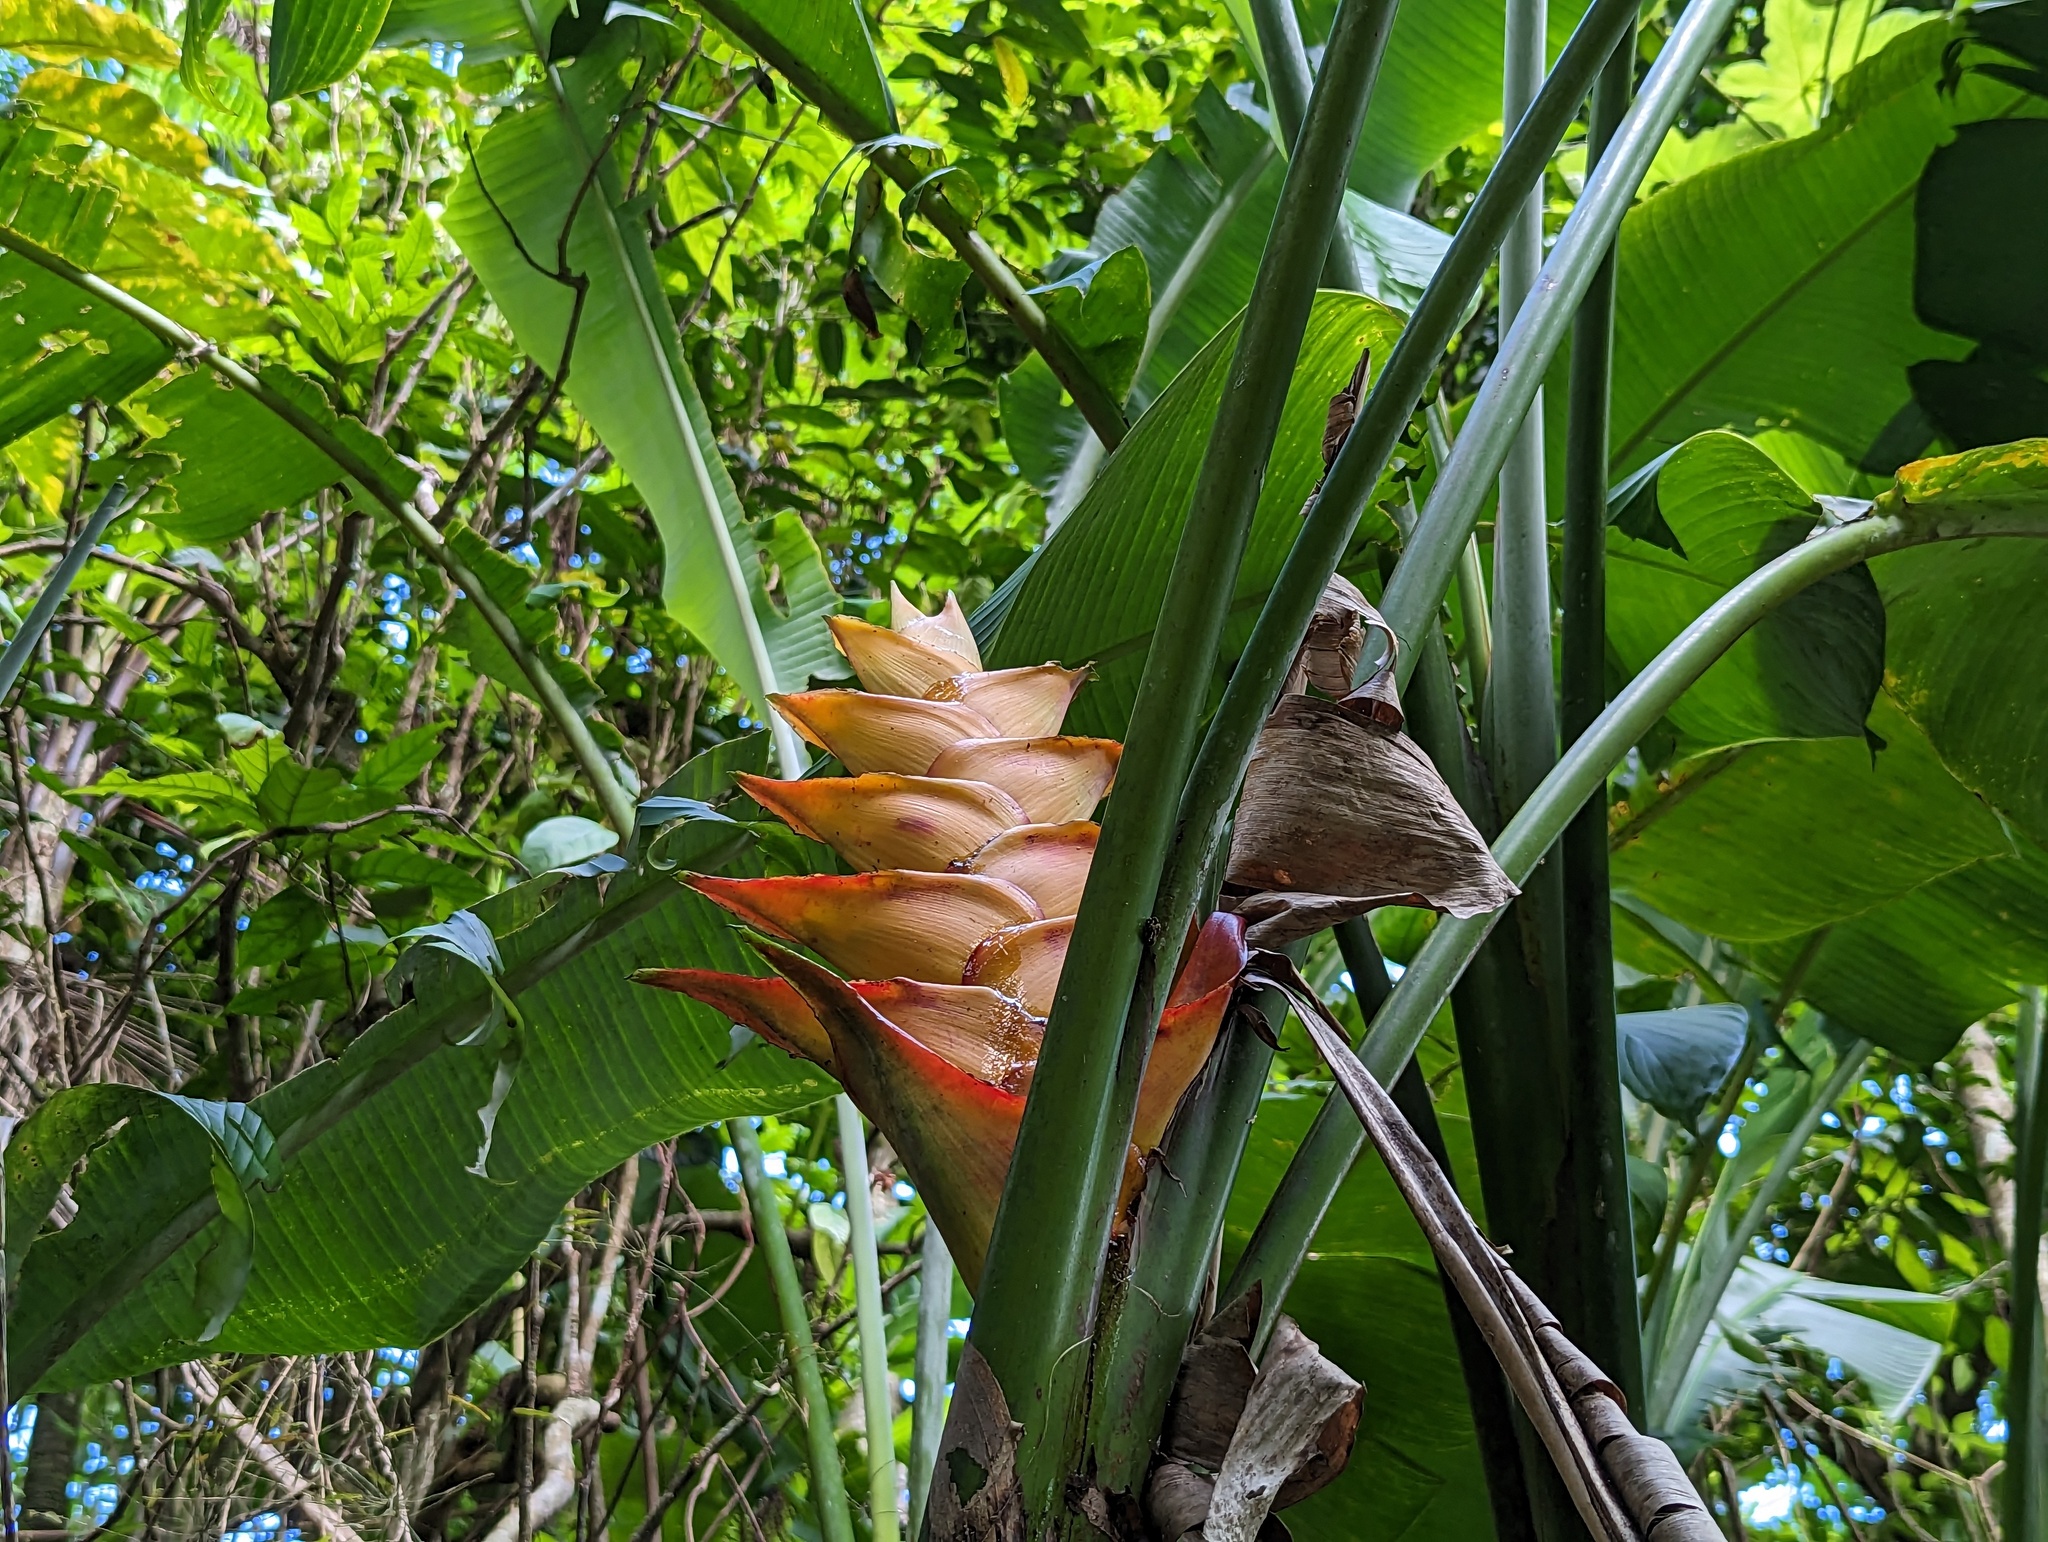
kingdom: Plantae
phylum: Tracheophyta
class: Liliopsida
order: Zingiberales
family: Heliconiaceae
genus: Heliconia
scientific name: Heliconia caribaea
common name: Wild plantain
